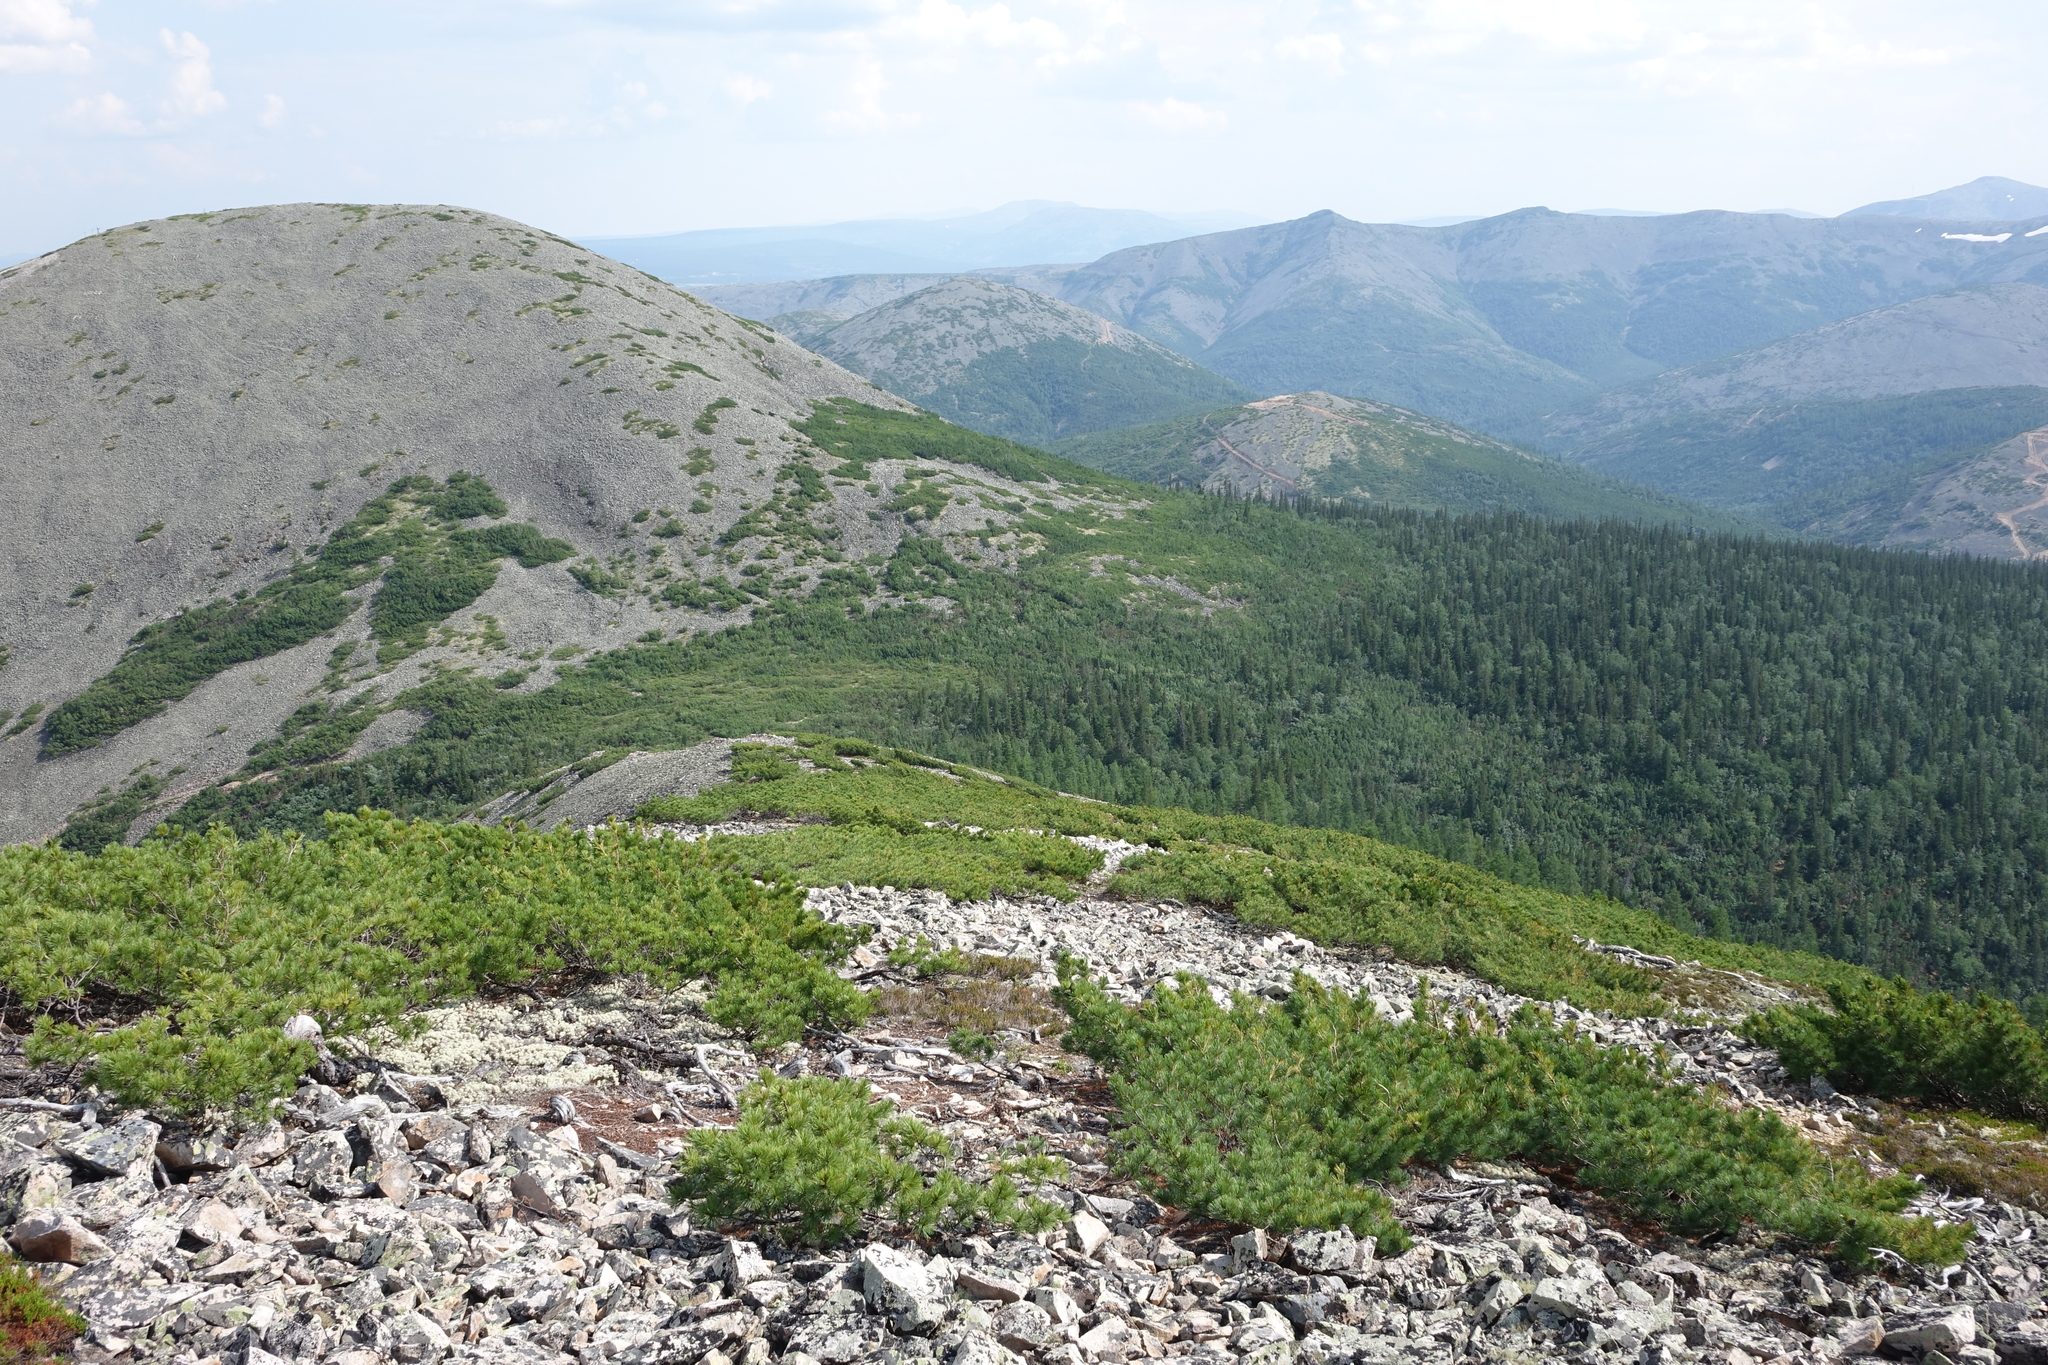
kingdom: Plantae
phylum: Tracheophyta
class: Pinopsida
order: Pinales
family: Pinaceae
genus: Pinus
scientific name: Pinus pumila
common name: Dwarf siberian pine
